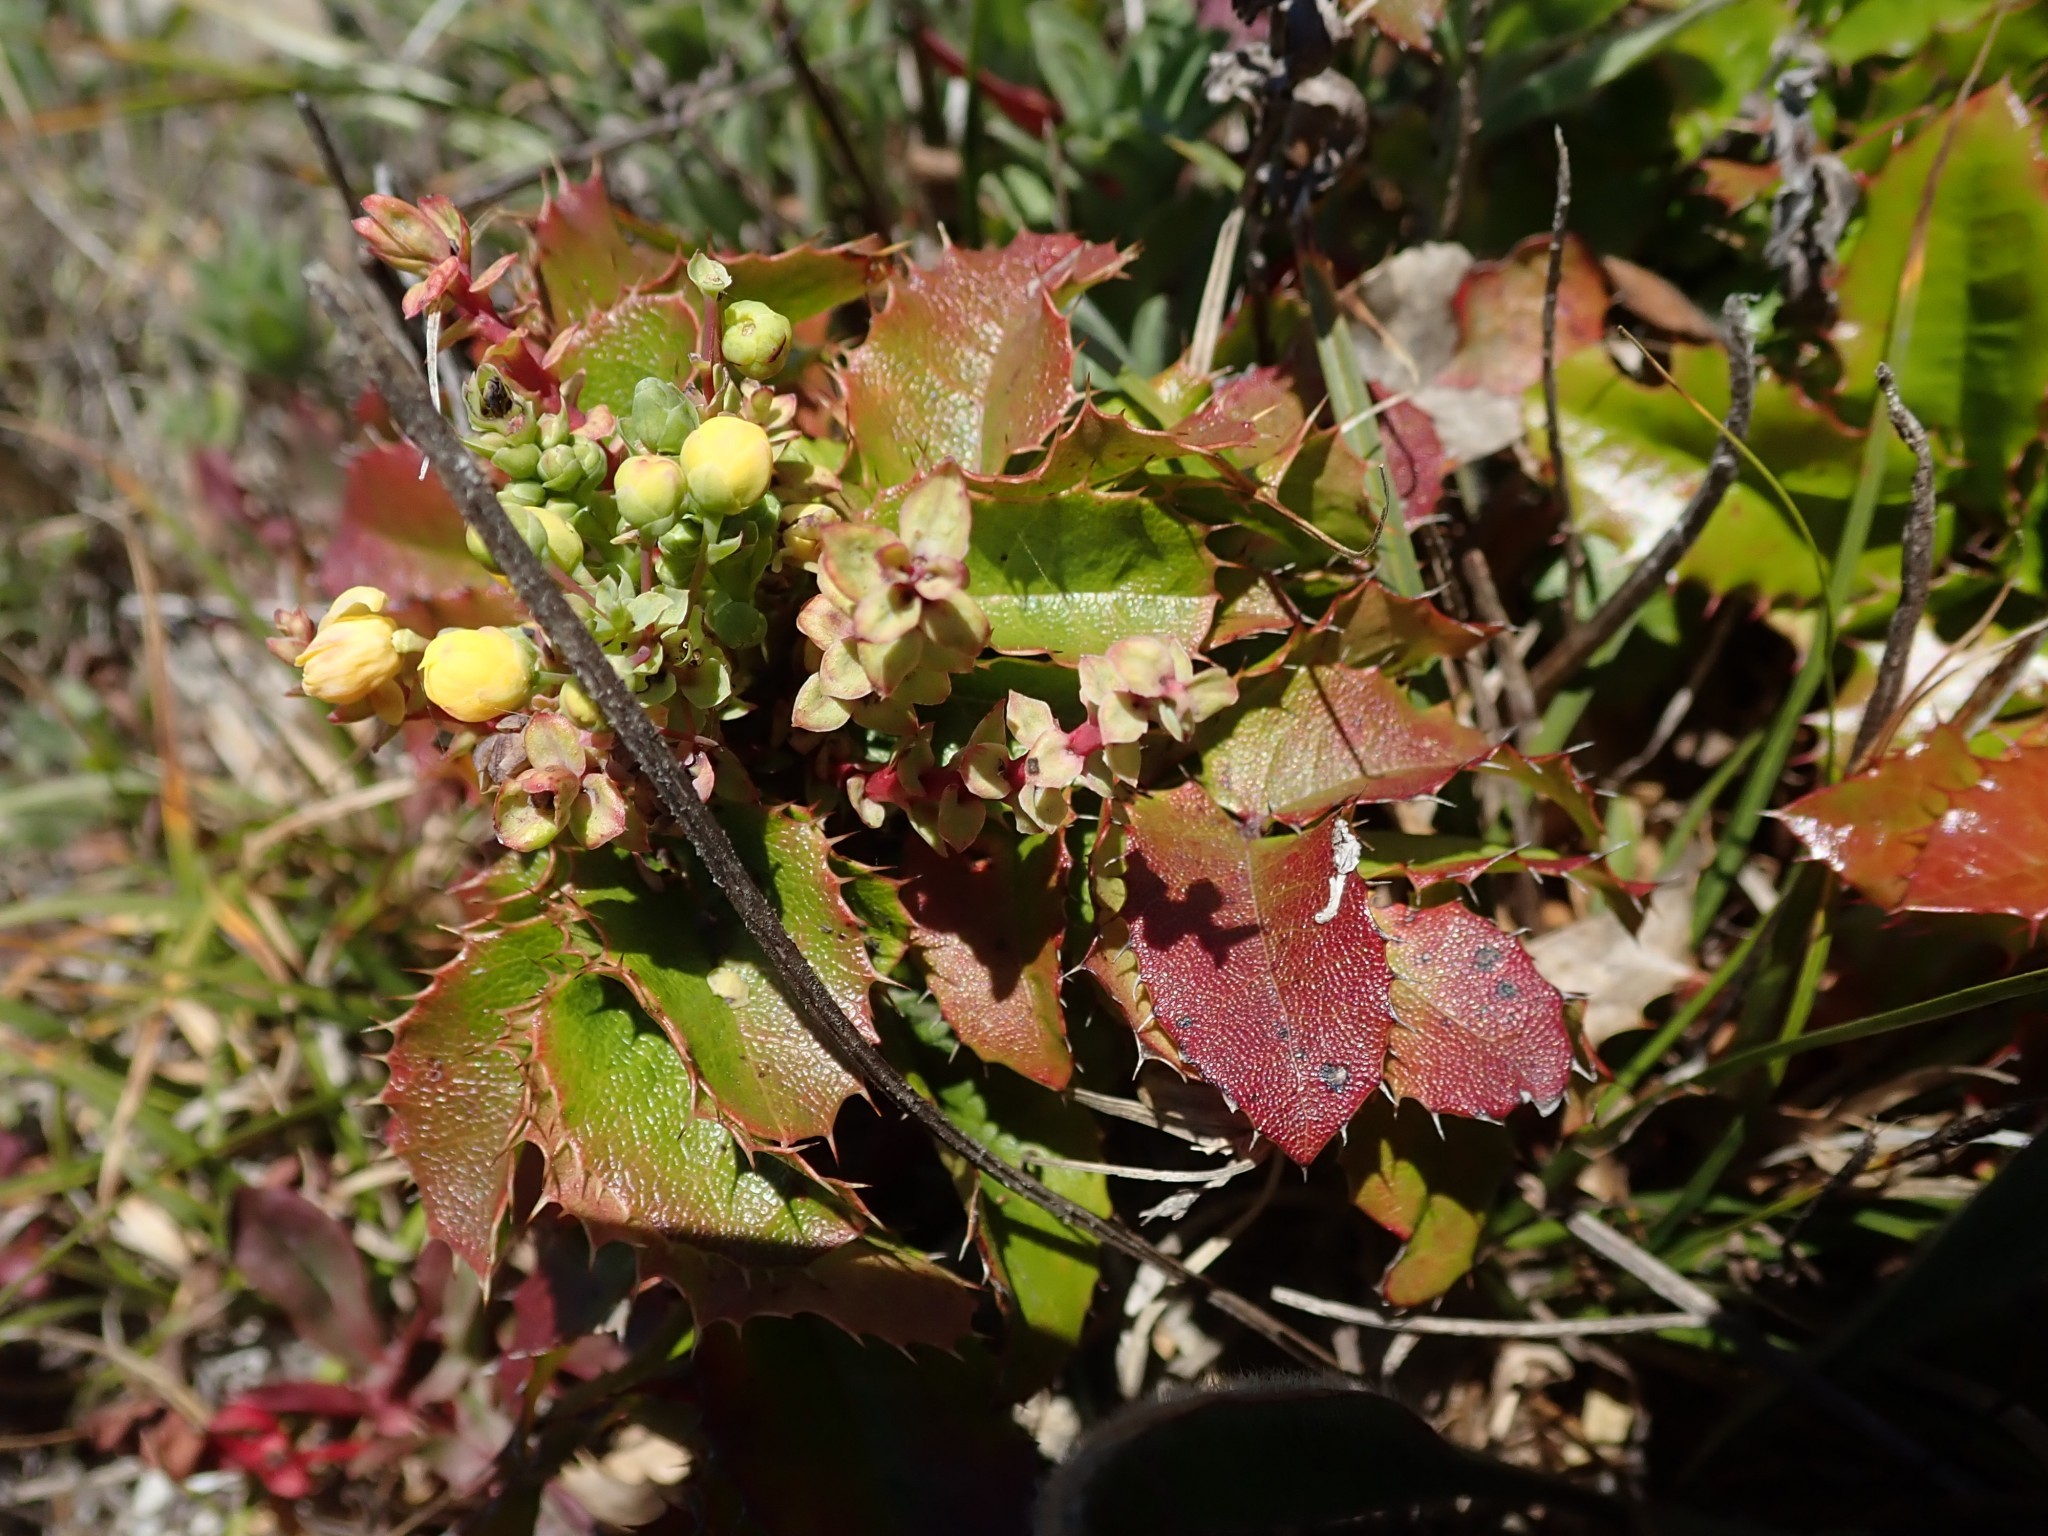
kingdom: Plantae
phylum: Tracheophyta
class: Magnoliopsida
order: Ranunculales
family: Berberidaceae
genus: Mahonia
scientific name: Mahonia
